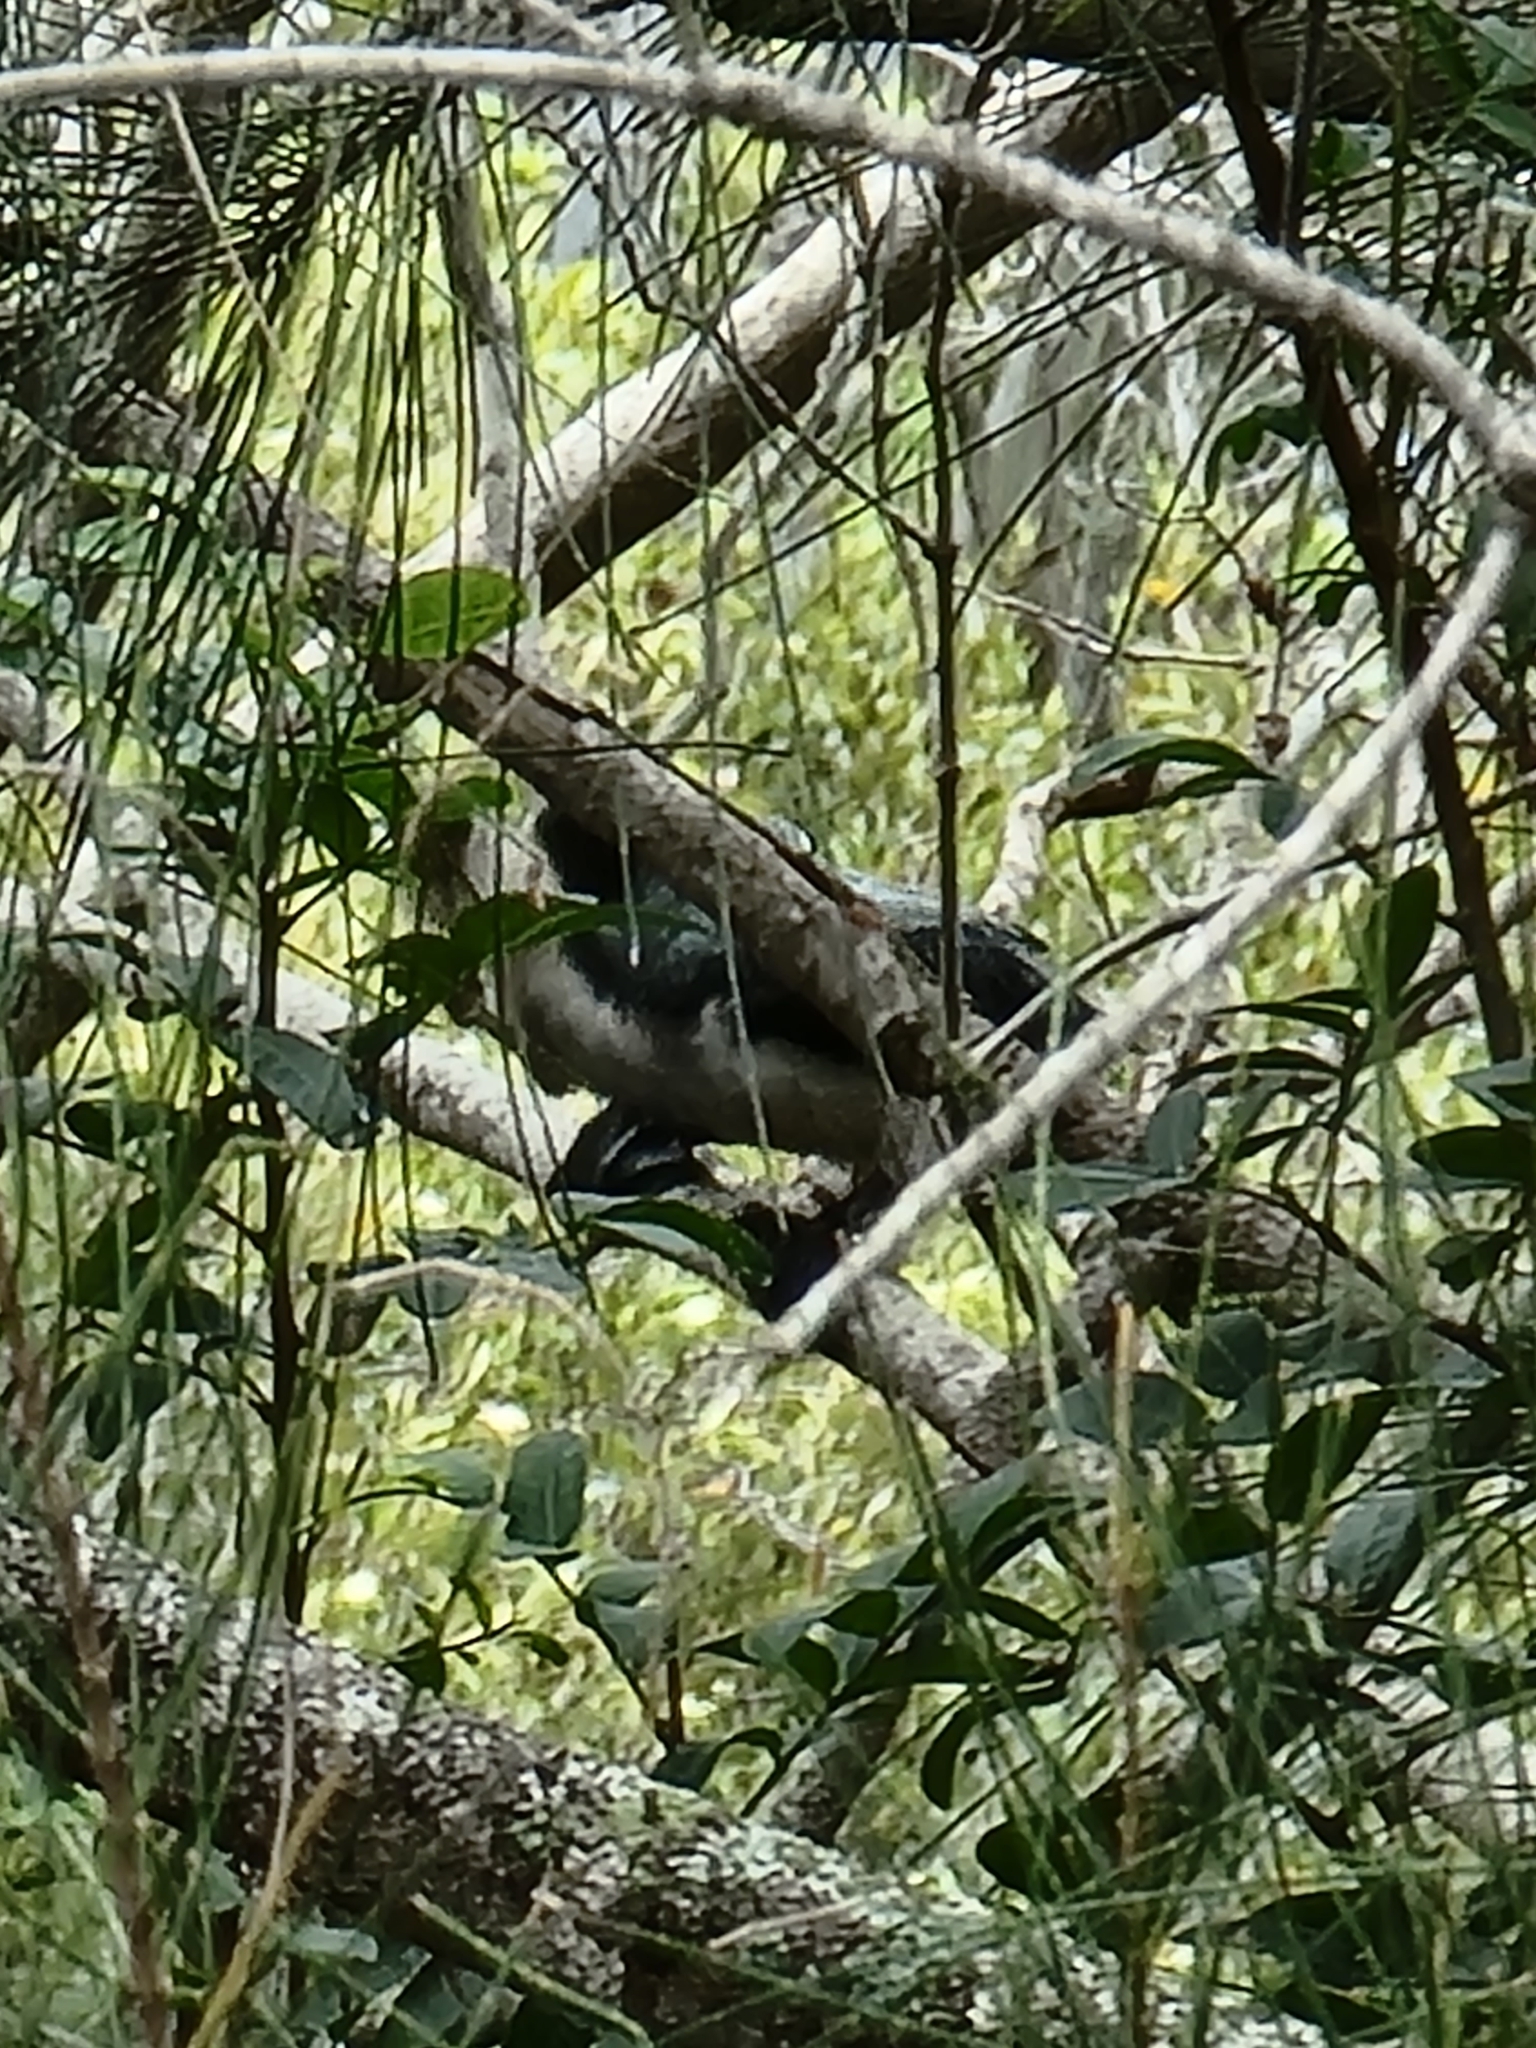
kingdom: Animalia
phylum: Chordata
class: Aves
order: Suliformes
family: Phalacrocoracidae
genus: Microcarbo
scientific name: Microcarbo melanoleucos
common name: Little pied cormorant
